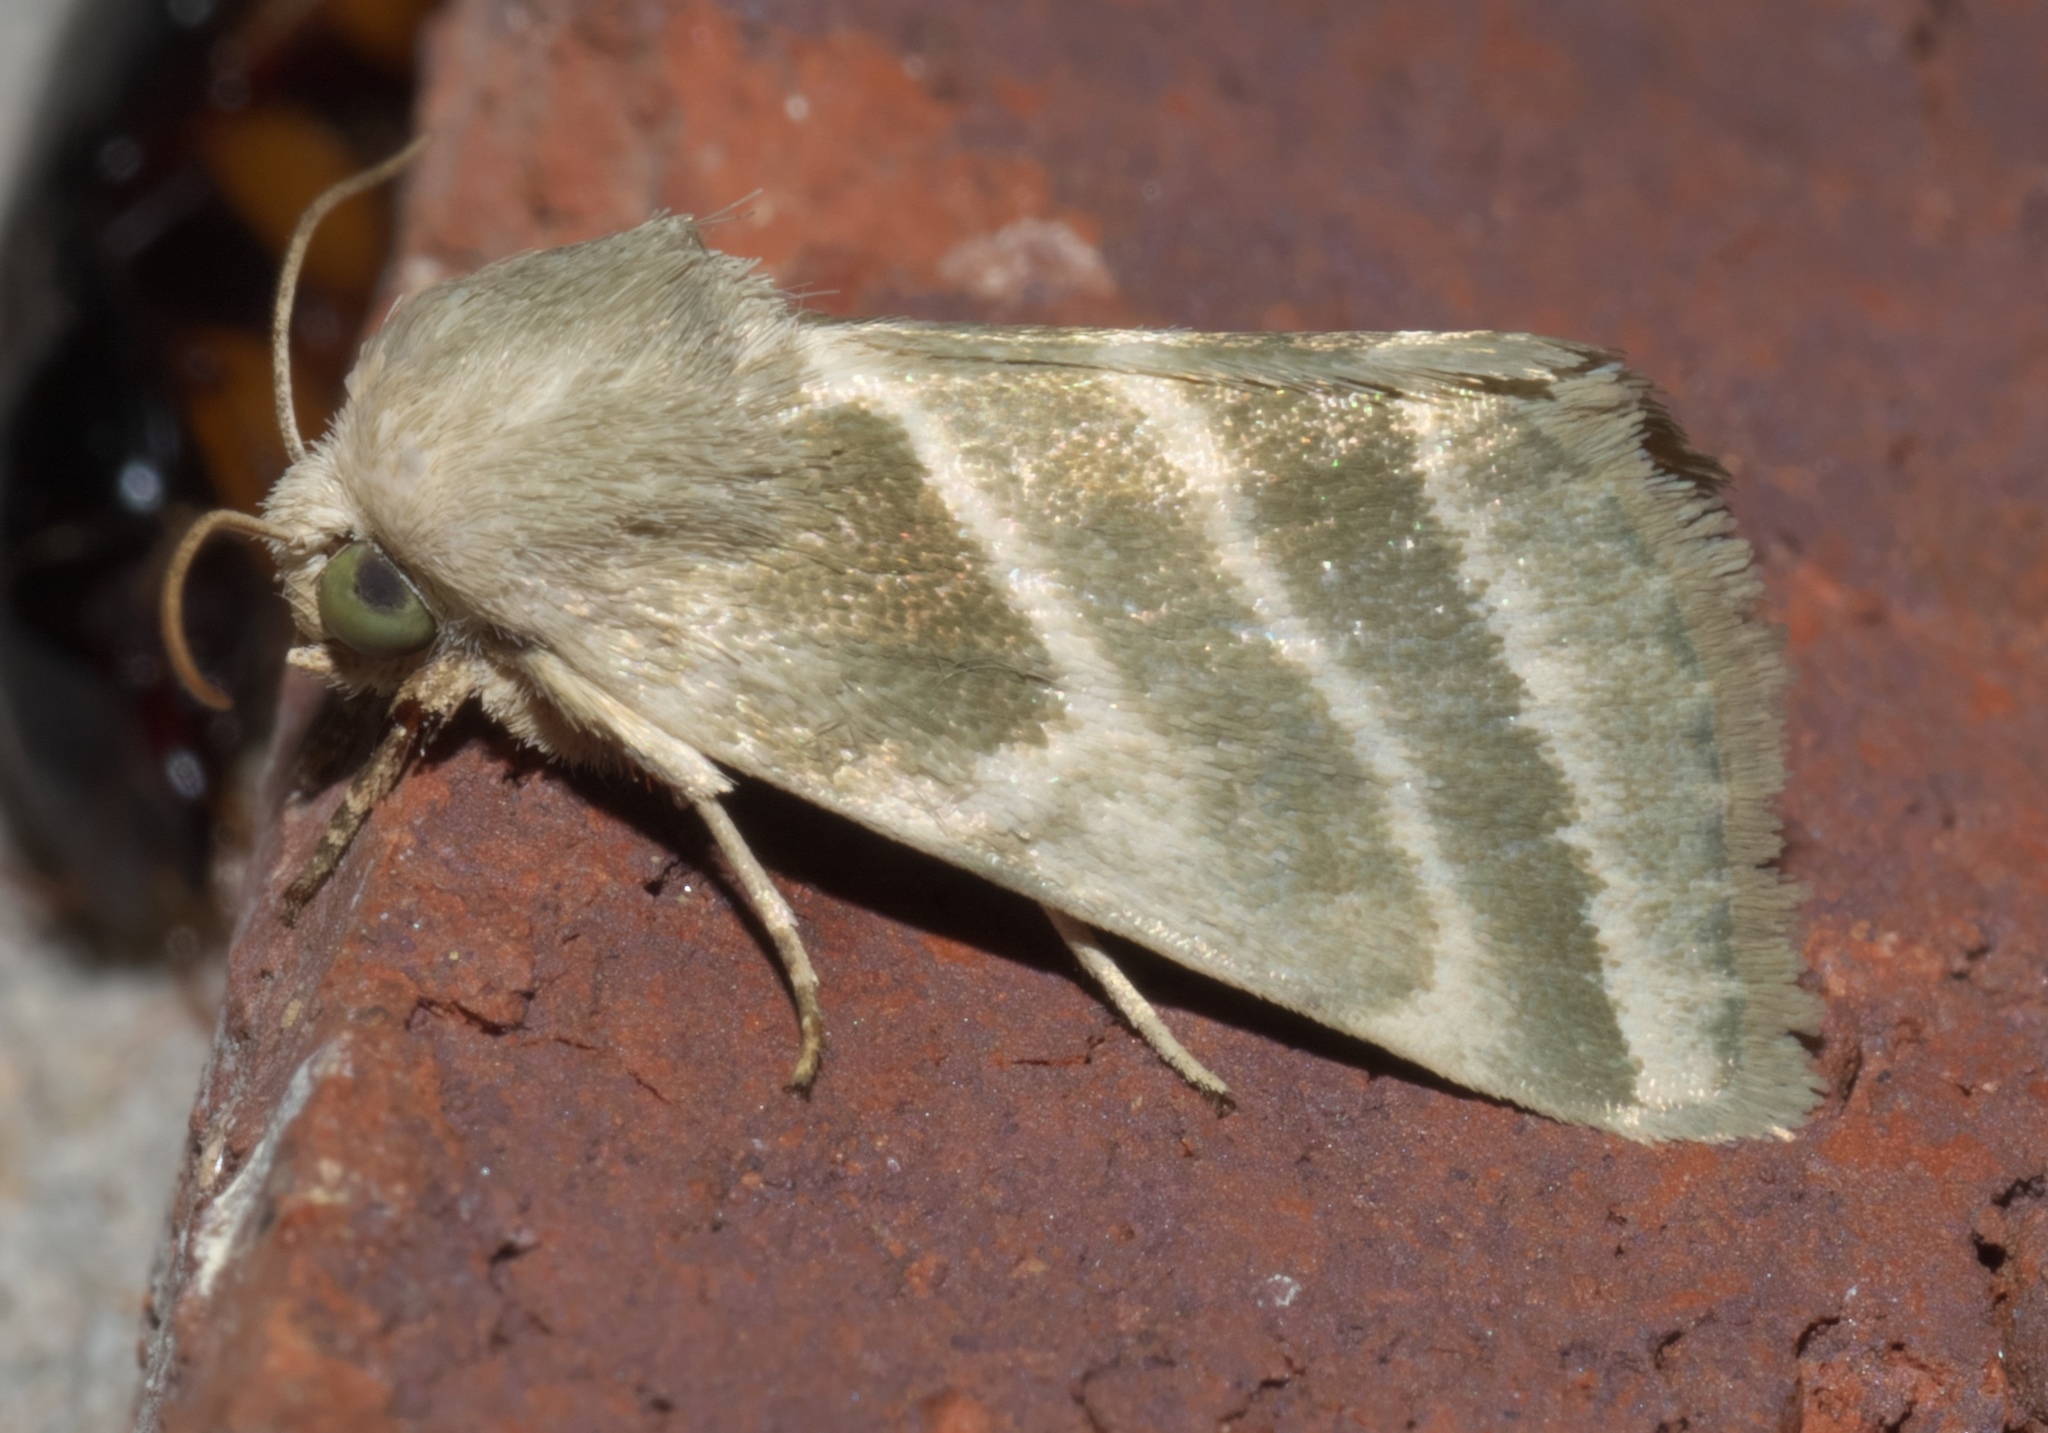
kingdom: Animalia
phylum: Arthropoda
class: Insecta
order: Lepidoptera
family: Noctuidae
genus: Schinia
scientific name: Schinia trifascia
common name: Three-lined flower moth
